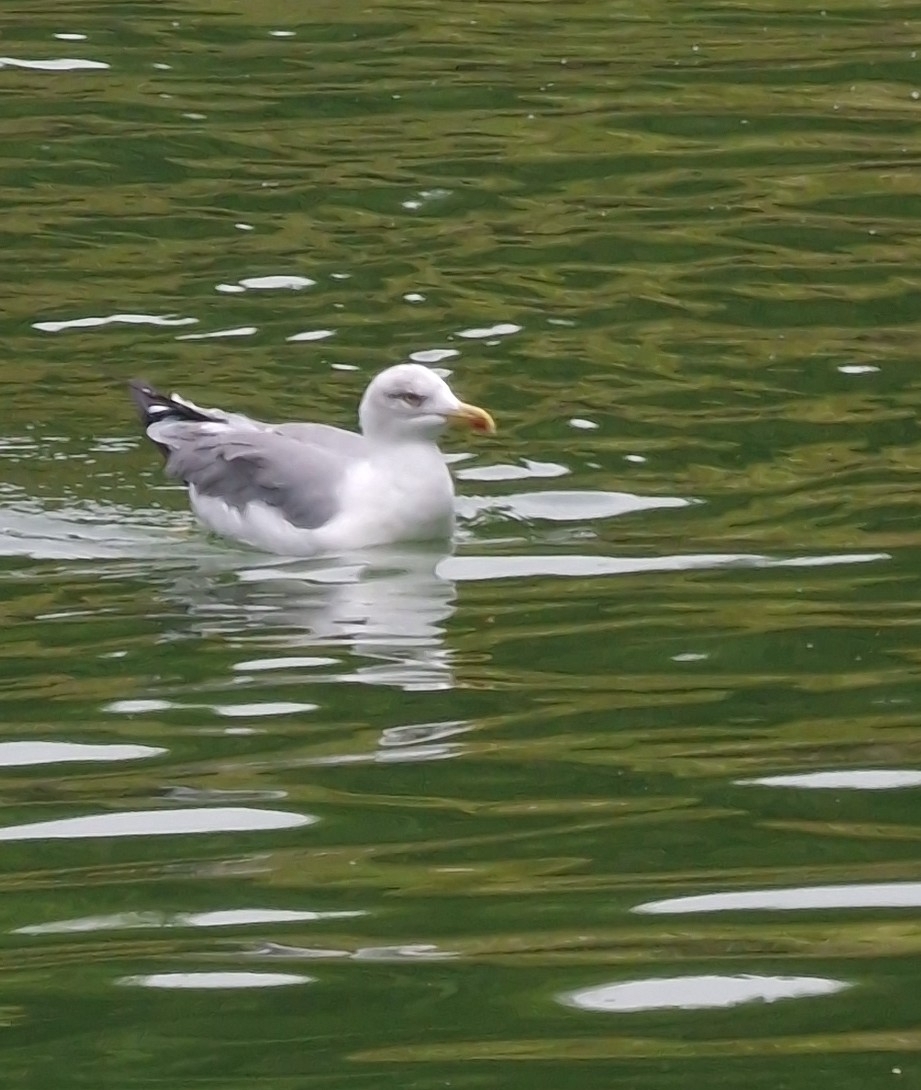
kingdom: Animalia
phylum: Chordata
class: Aves
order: Charadriiformes
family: Laridae
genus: Larus
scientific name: Larus michahellis
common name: Yellow-legged gull
